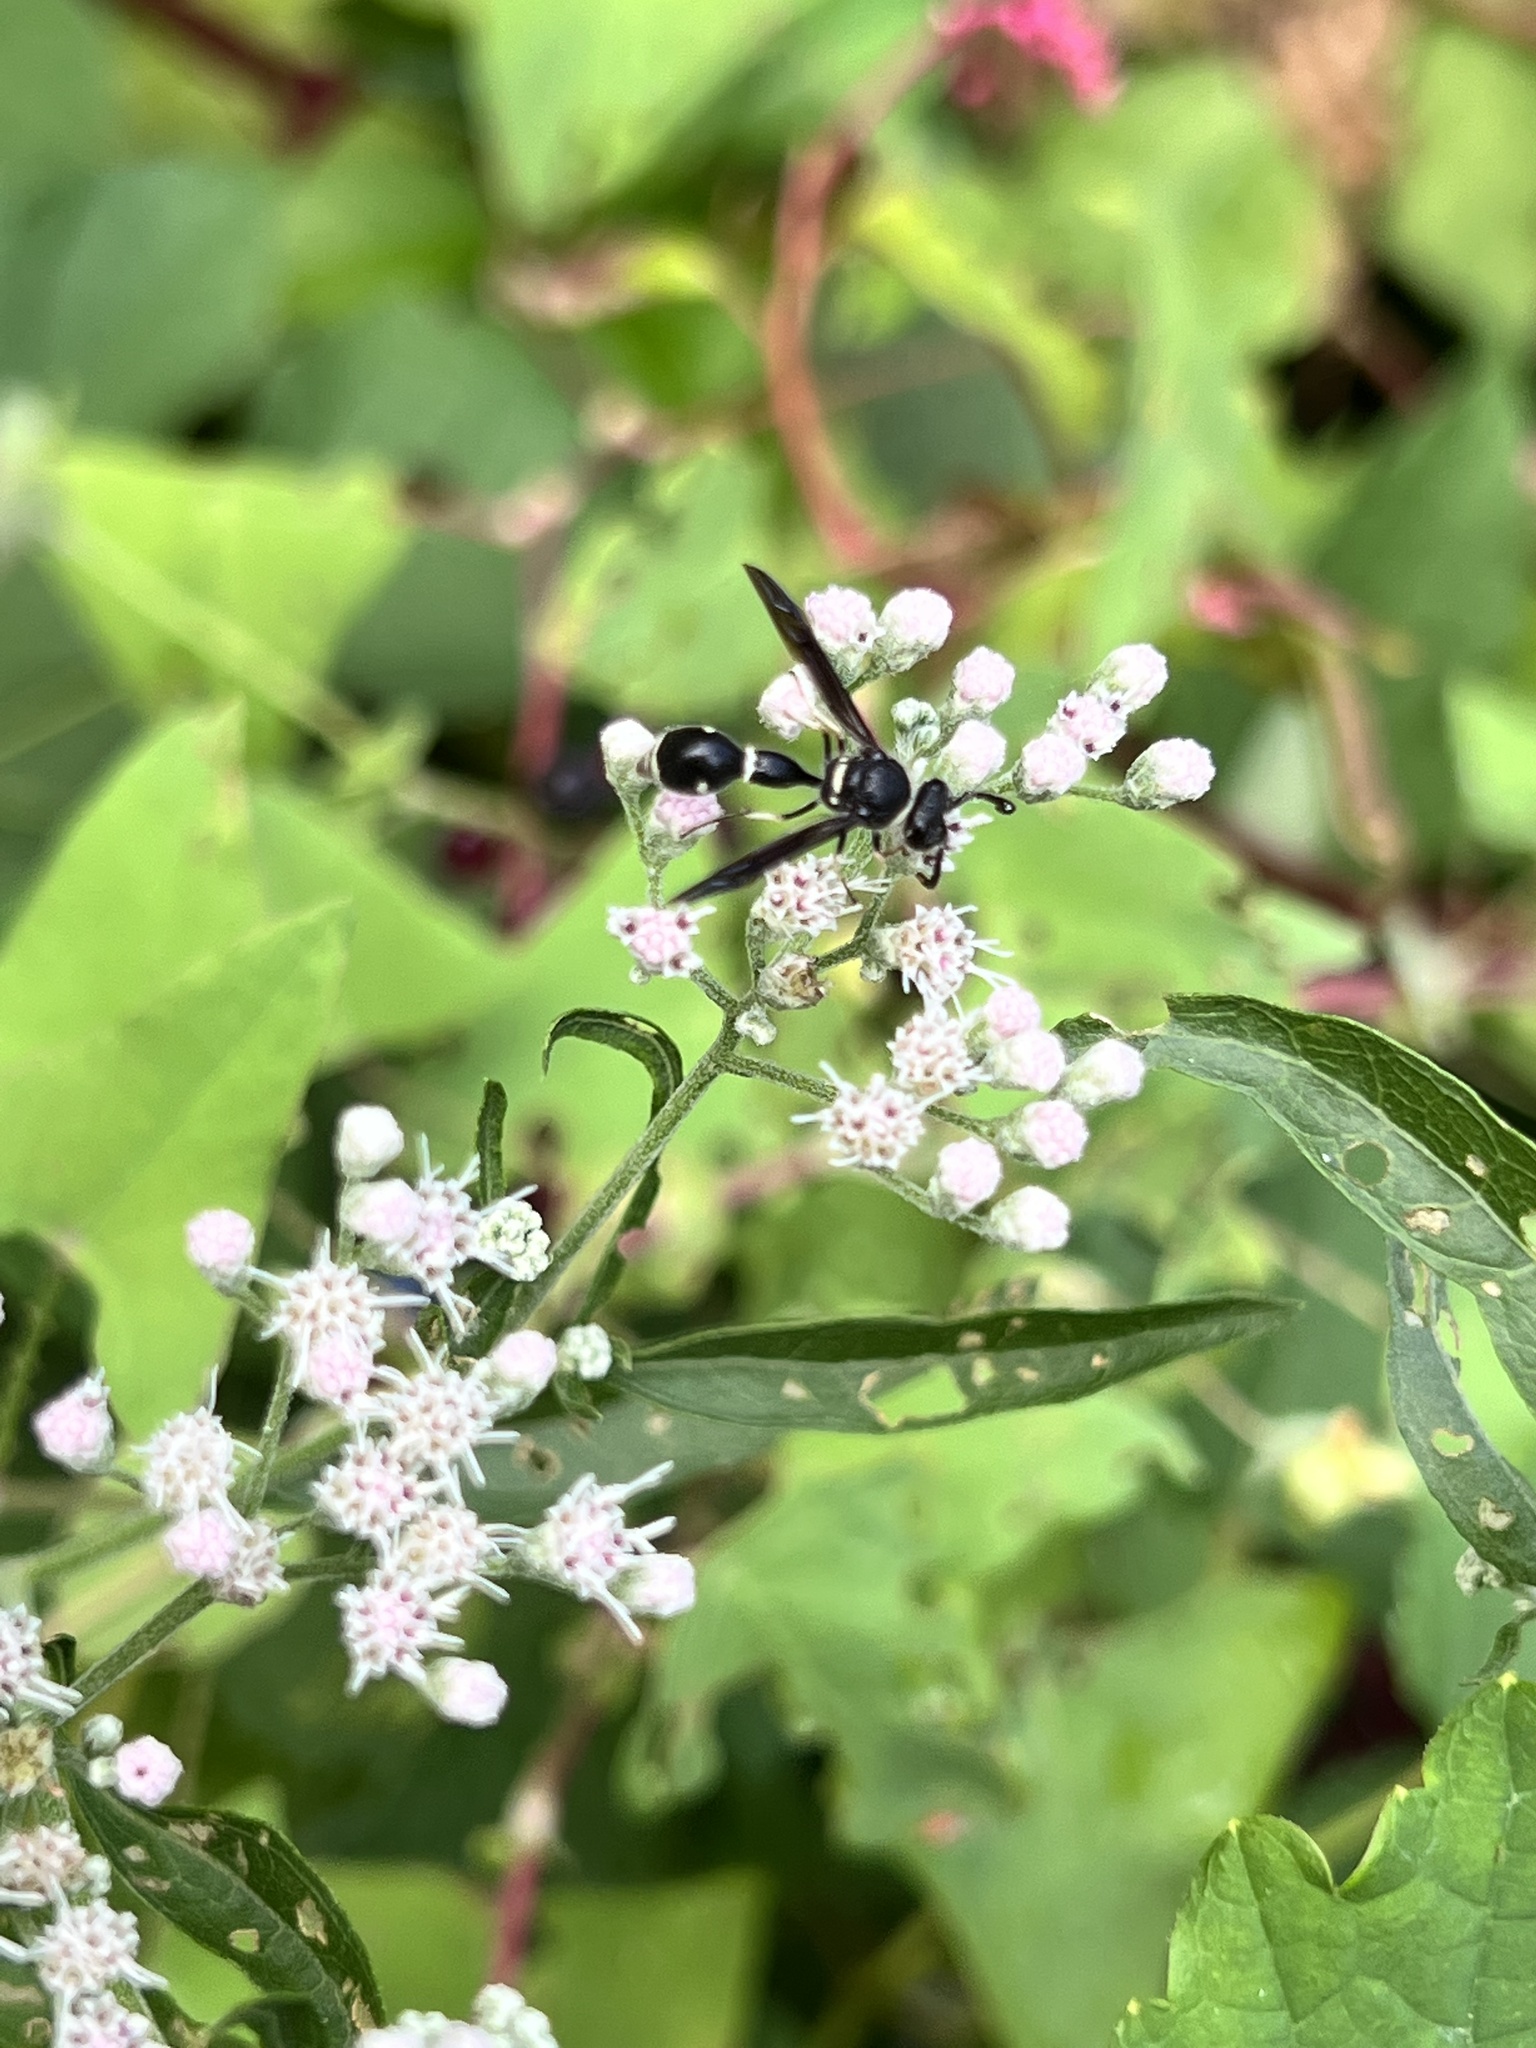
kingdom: Animalia
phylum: Arthropoda
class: Insecta
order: Hymenoptera
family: Vespidae
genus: Eumenes
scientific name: Eumenes fraternus
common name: Fraternal potter wasp
